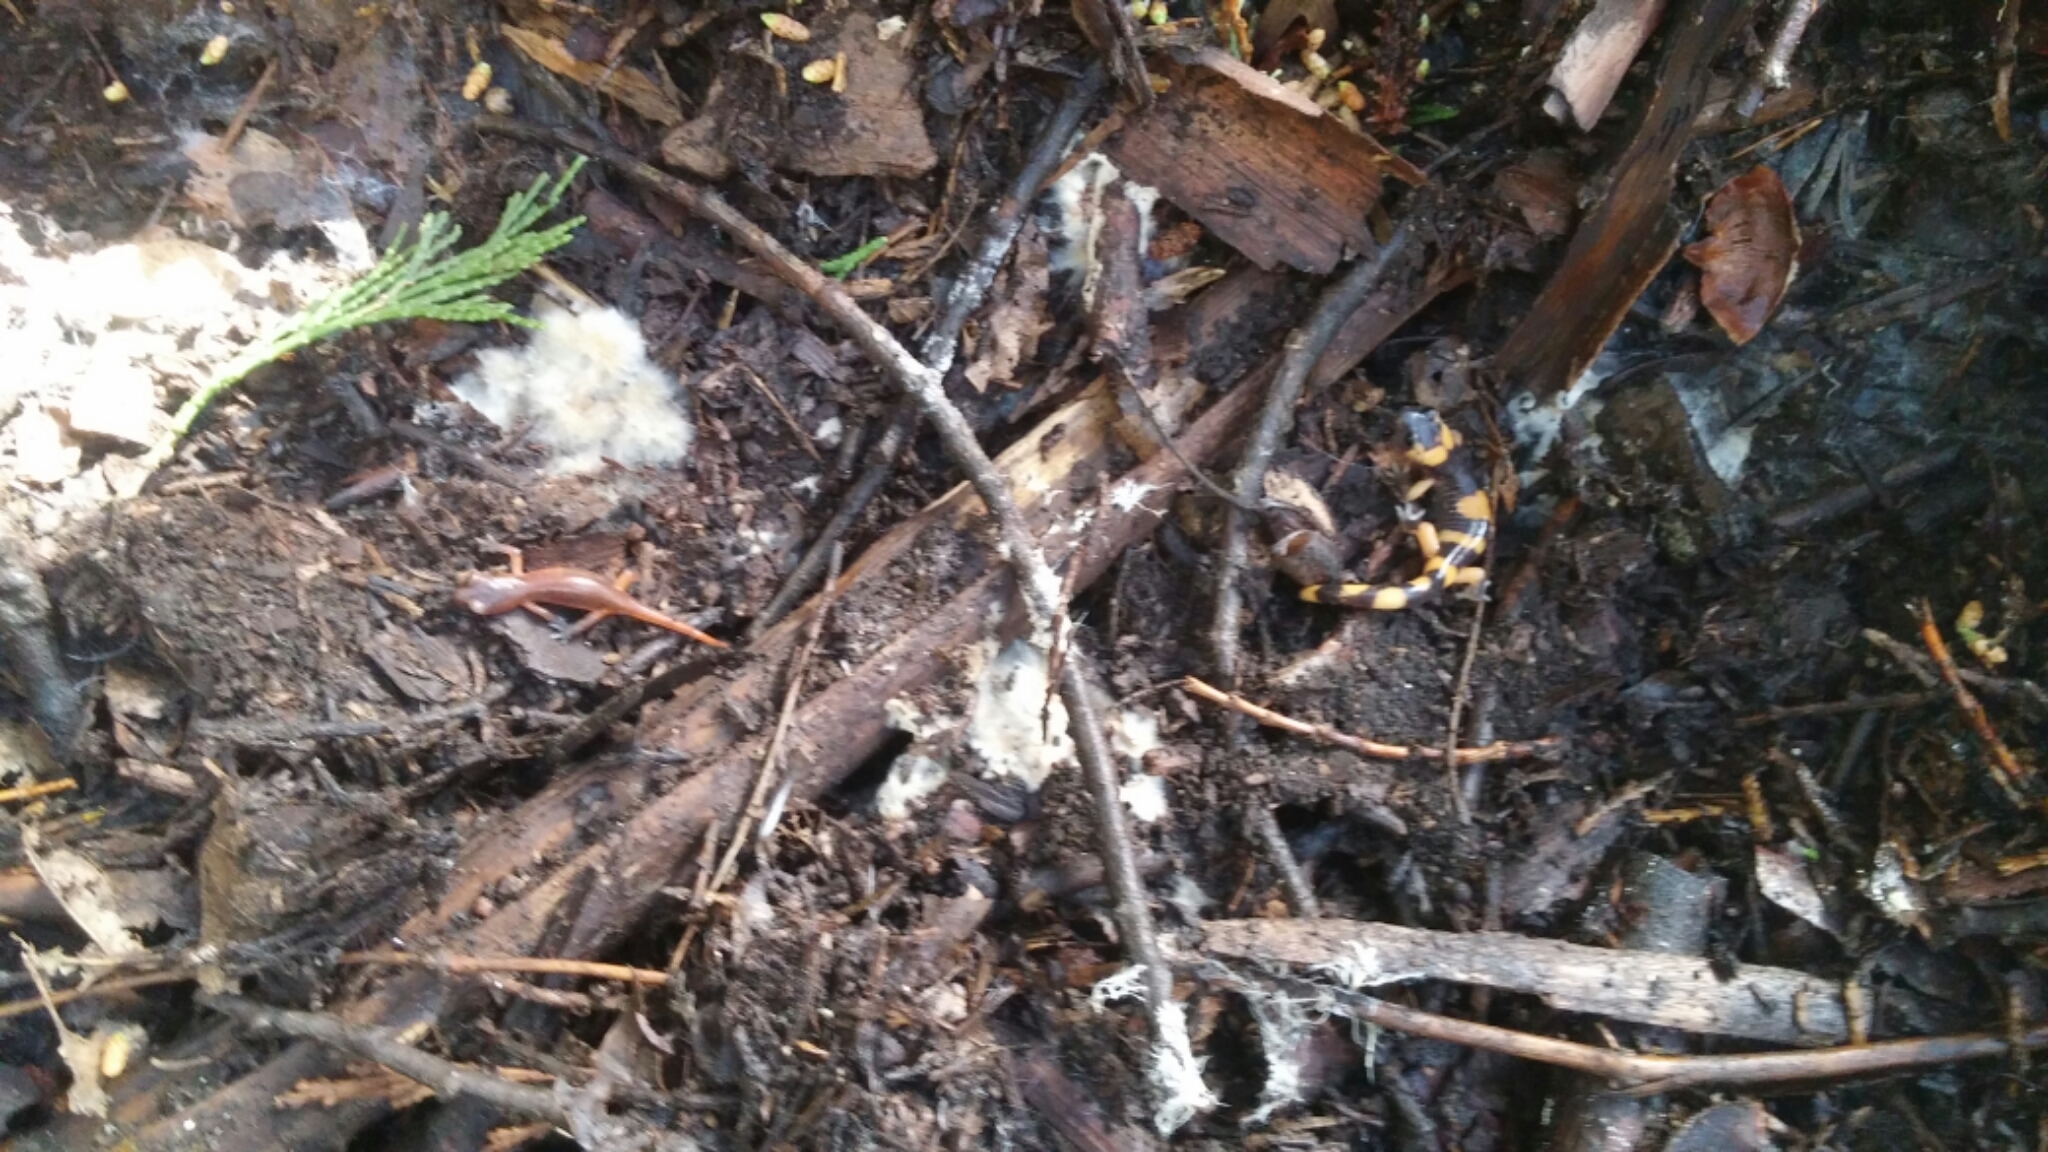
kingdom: Animalia
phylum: Chordata
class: Amphibia
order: Caudata
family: Plethodontidae
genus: Ensatina
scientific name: Ensatina eschscholtzii
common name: Ensatina
